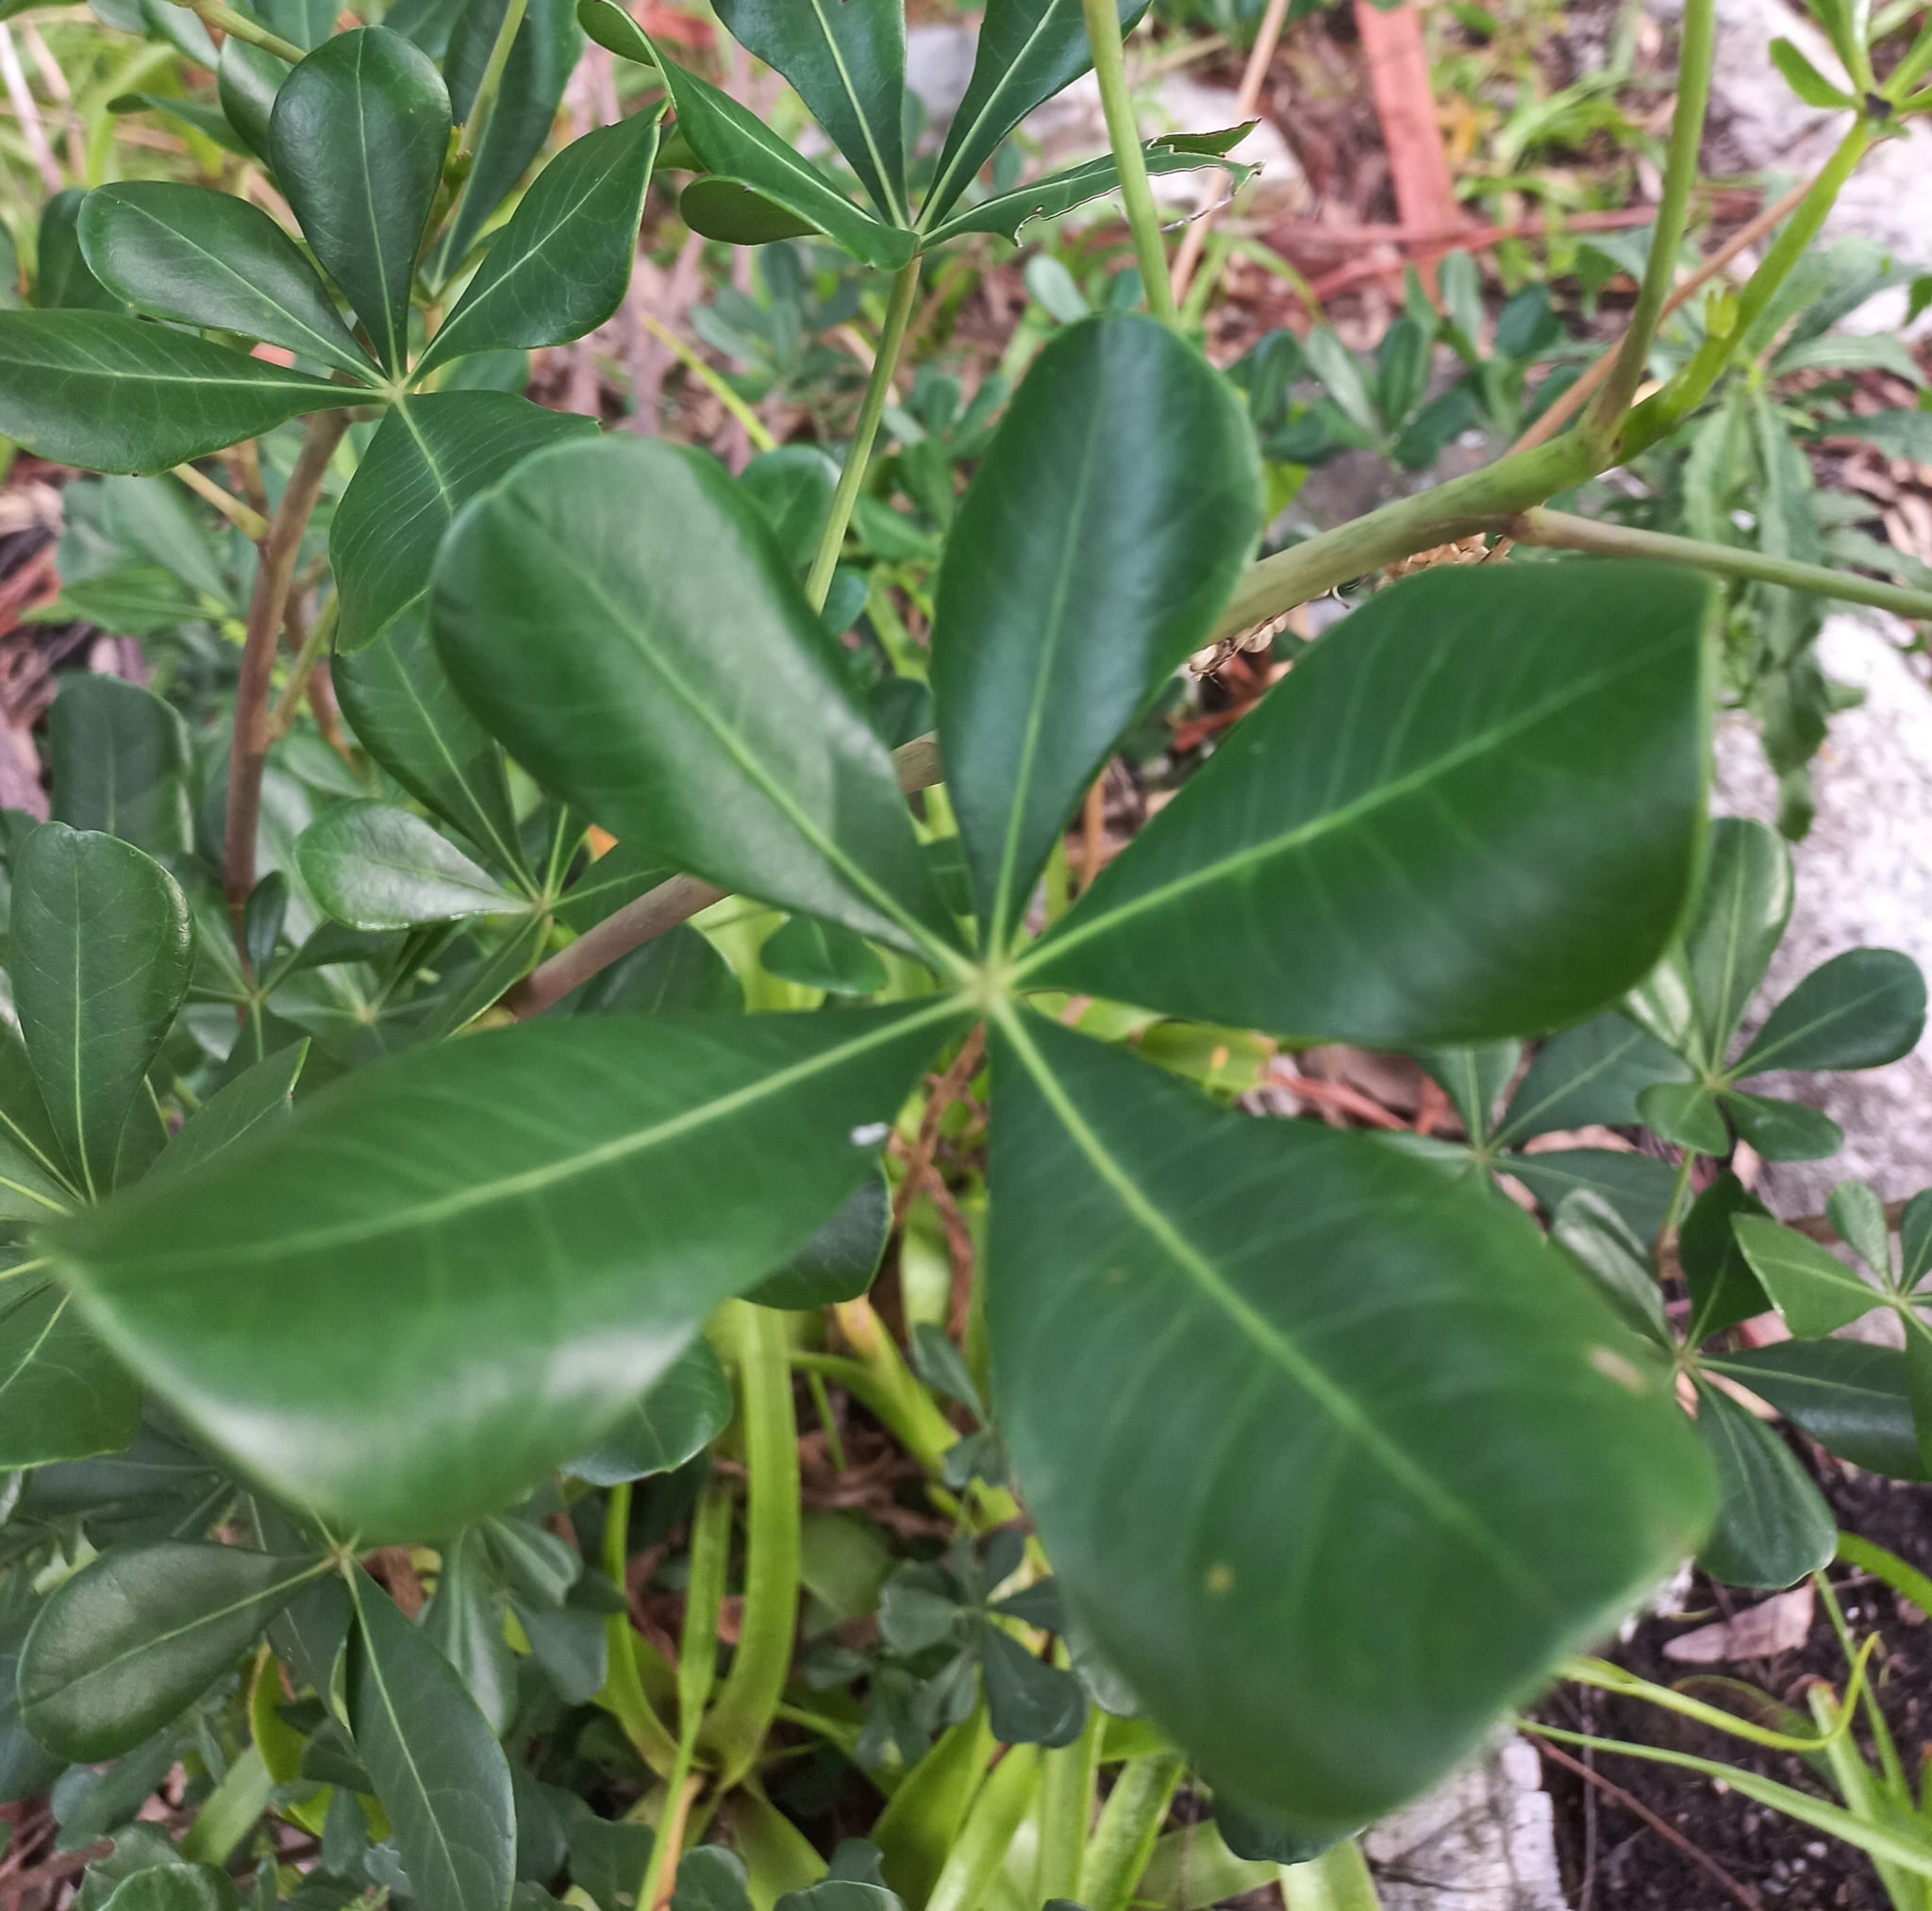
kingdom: Plantae
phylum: Tracheophyta
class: Magnoliopsida
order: Apiales
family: Araliaceae
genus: Cussonia
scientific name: Cussonia thyrsiflora
